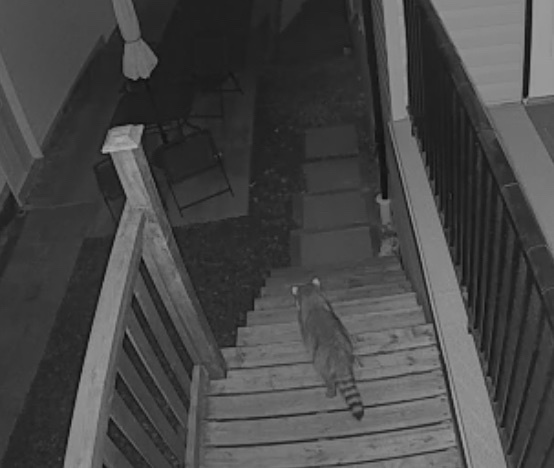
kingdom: Animalia
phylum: Chordata
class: Mammalia
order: Carnivora
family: Procyonidae
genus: Procyon
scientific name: Procyon lotor
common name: Raccoon
